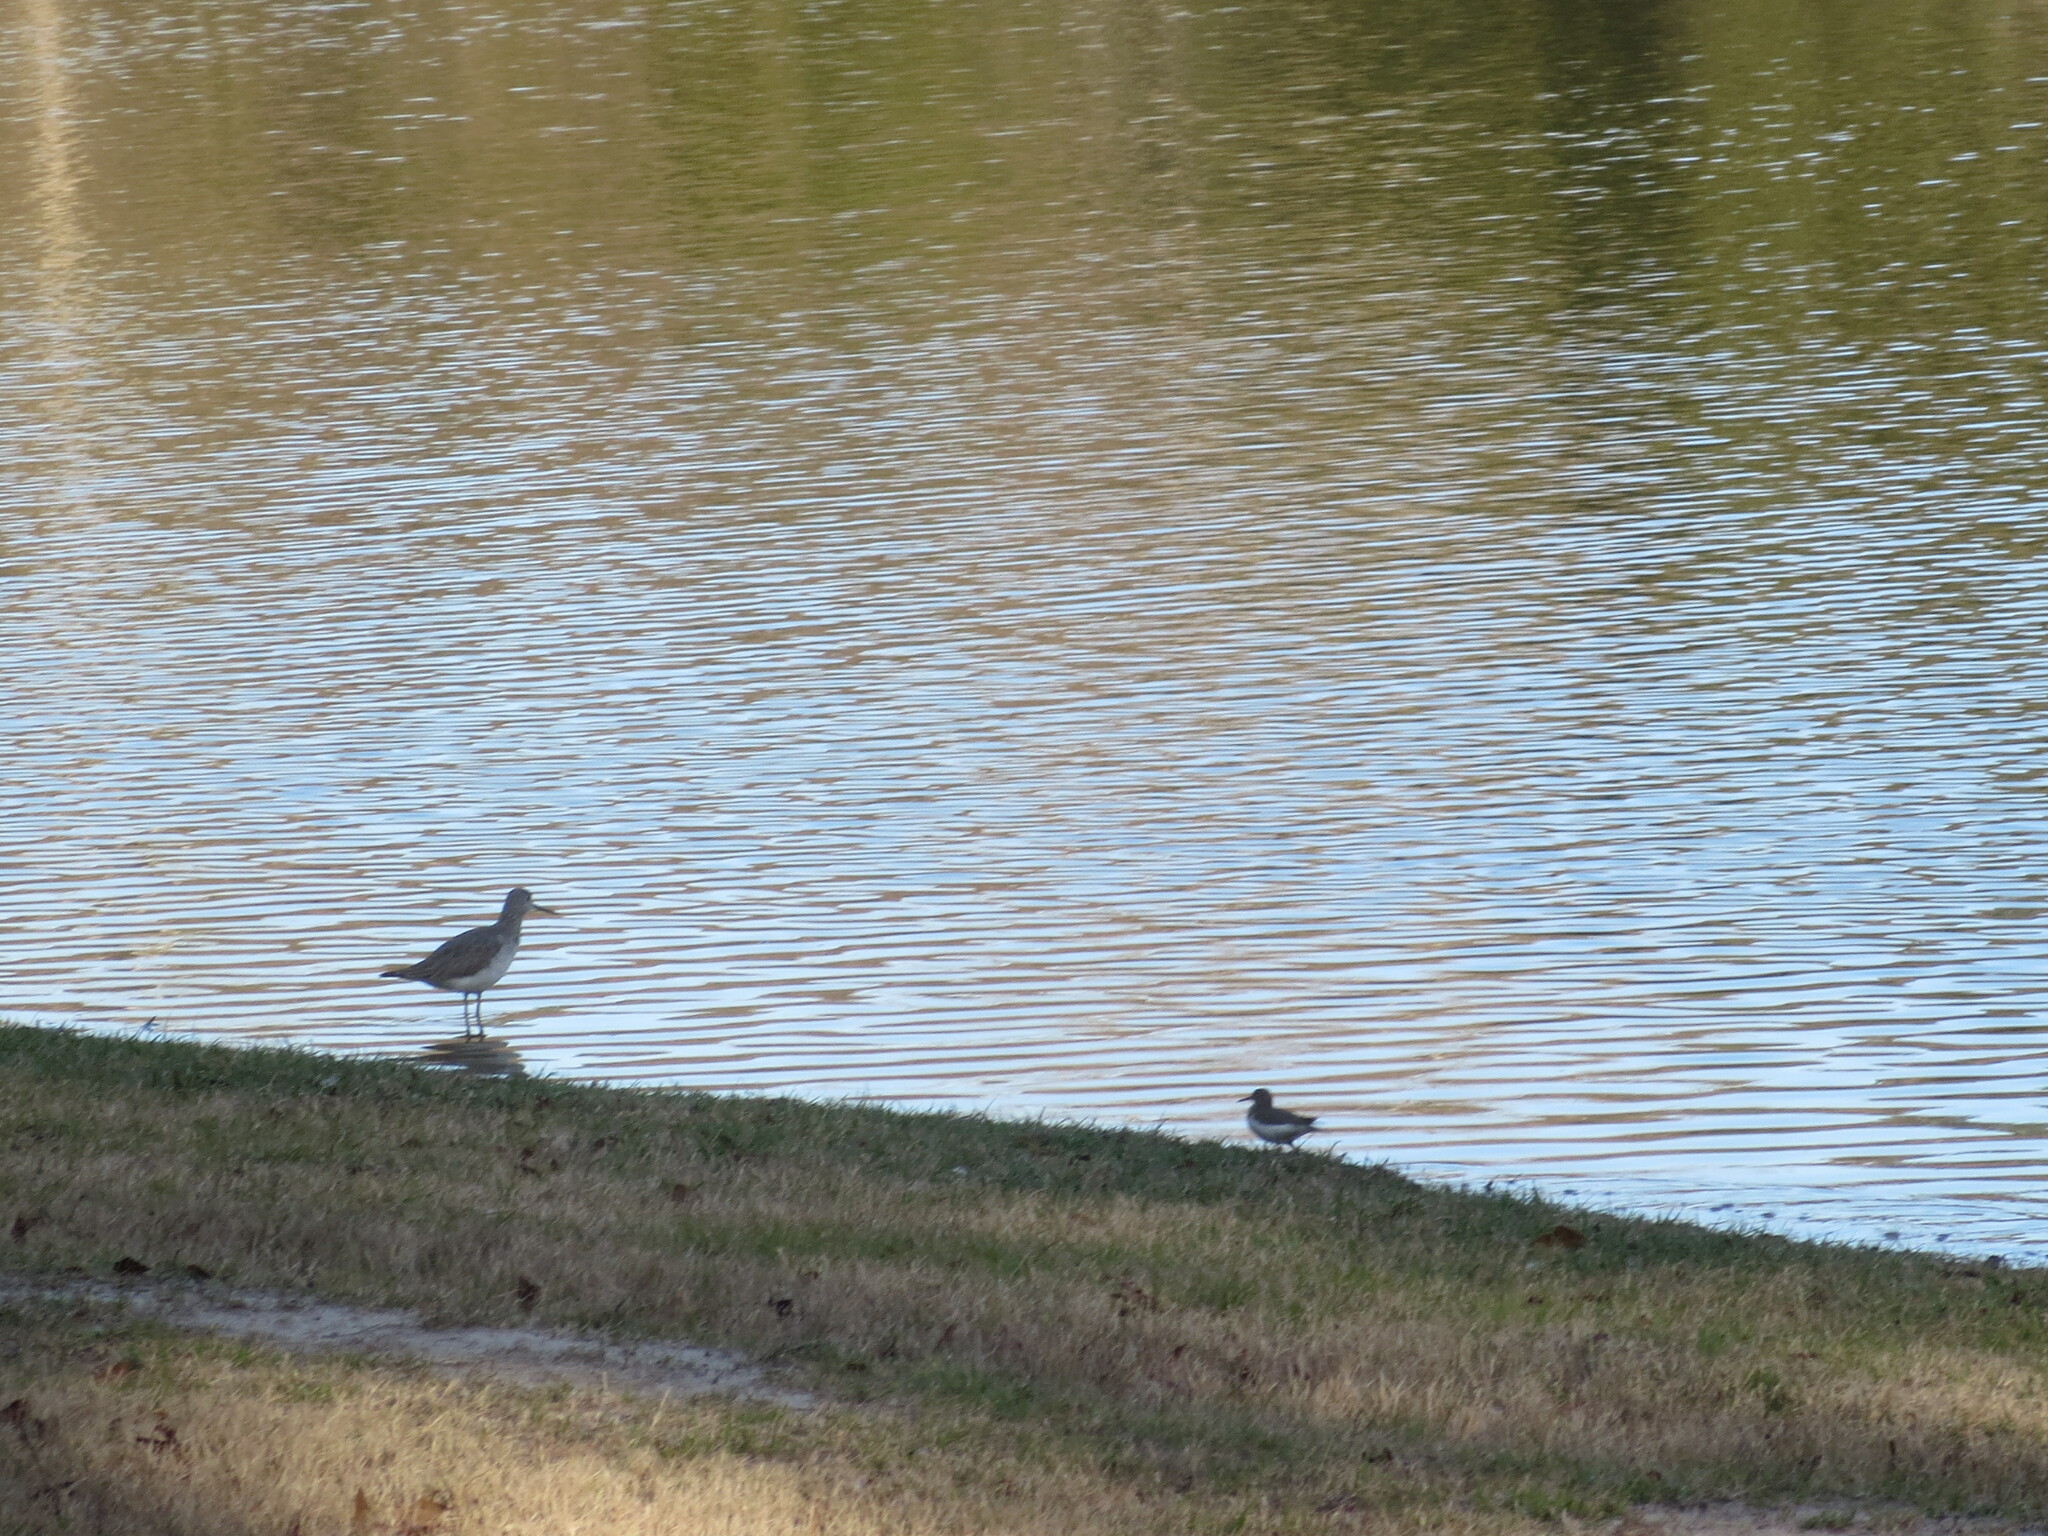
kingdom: Animalia
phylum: Chordata
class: Aves
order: Charadriiformes
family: Scolopacidae
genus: Tringa
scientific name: Tringa melanoleuca
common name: Greater yellowlegs
